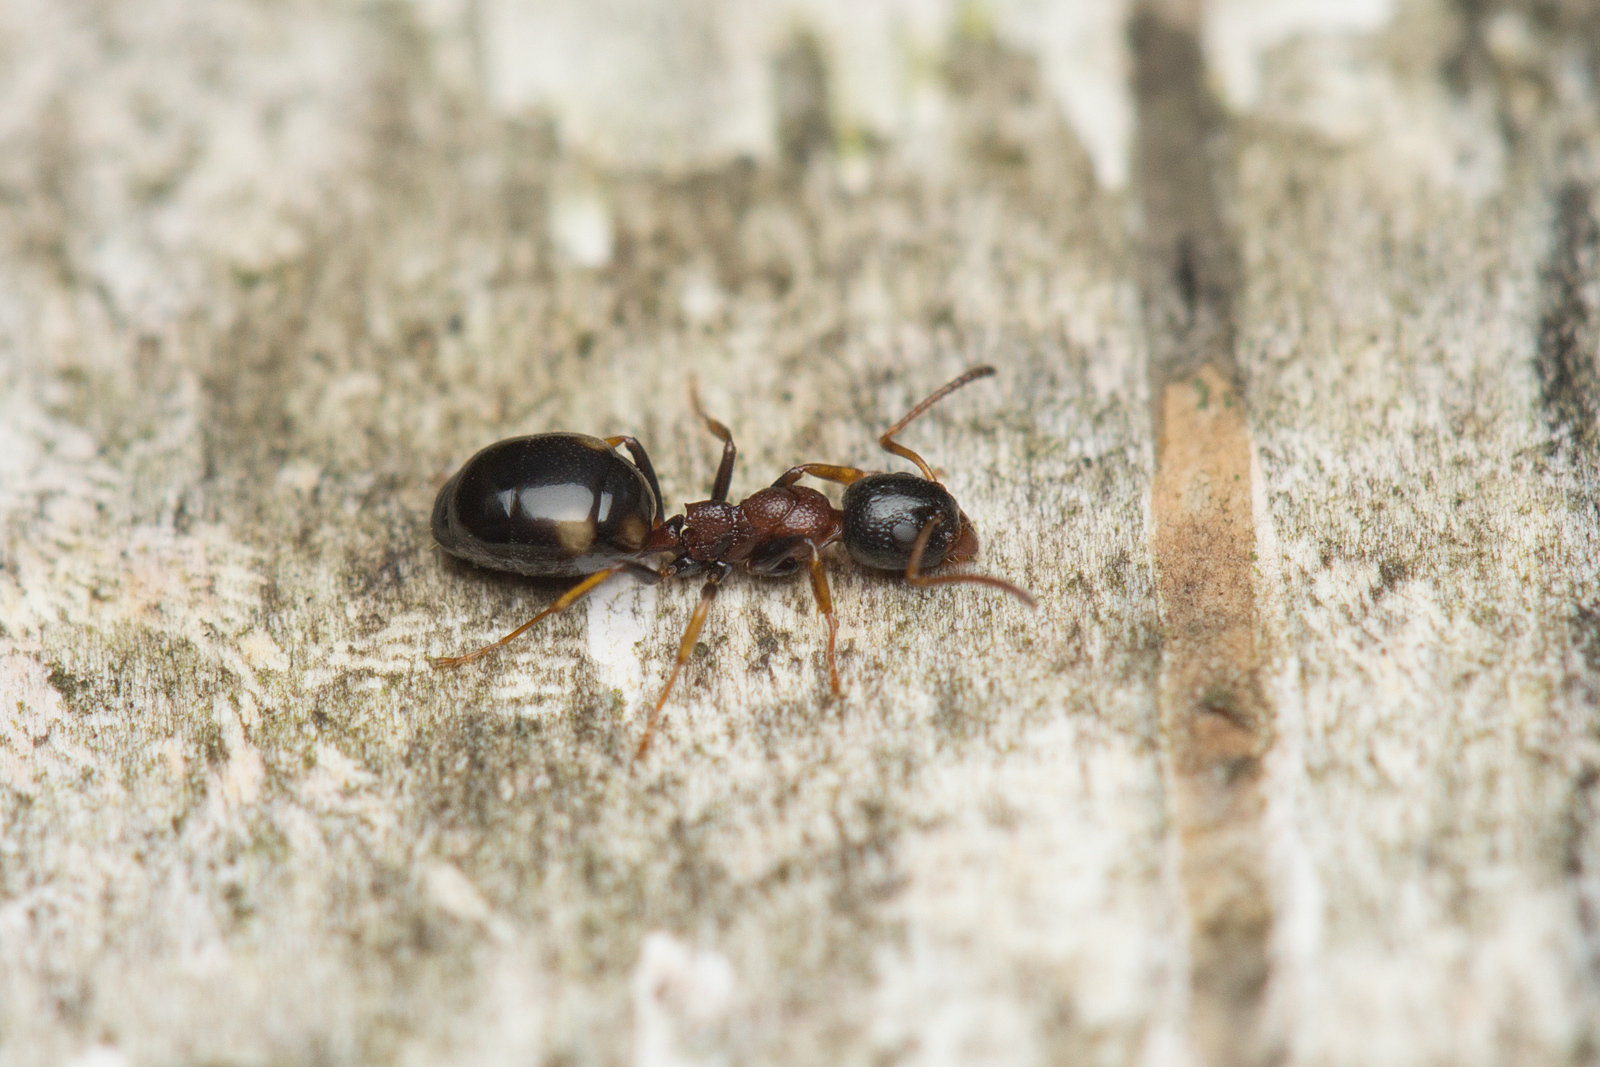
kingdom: Animalia
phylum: Arthropoda
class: Insecta
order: Hymenoptera
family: Formicidae
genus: Dolichoderus
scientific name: Dolichoderus quadripunctatus
